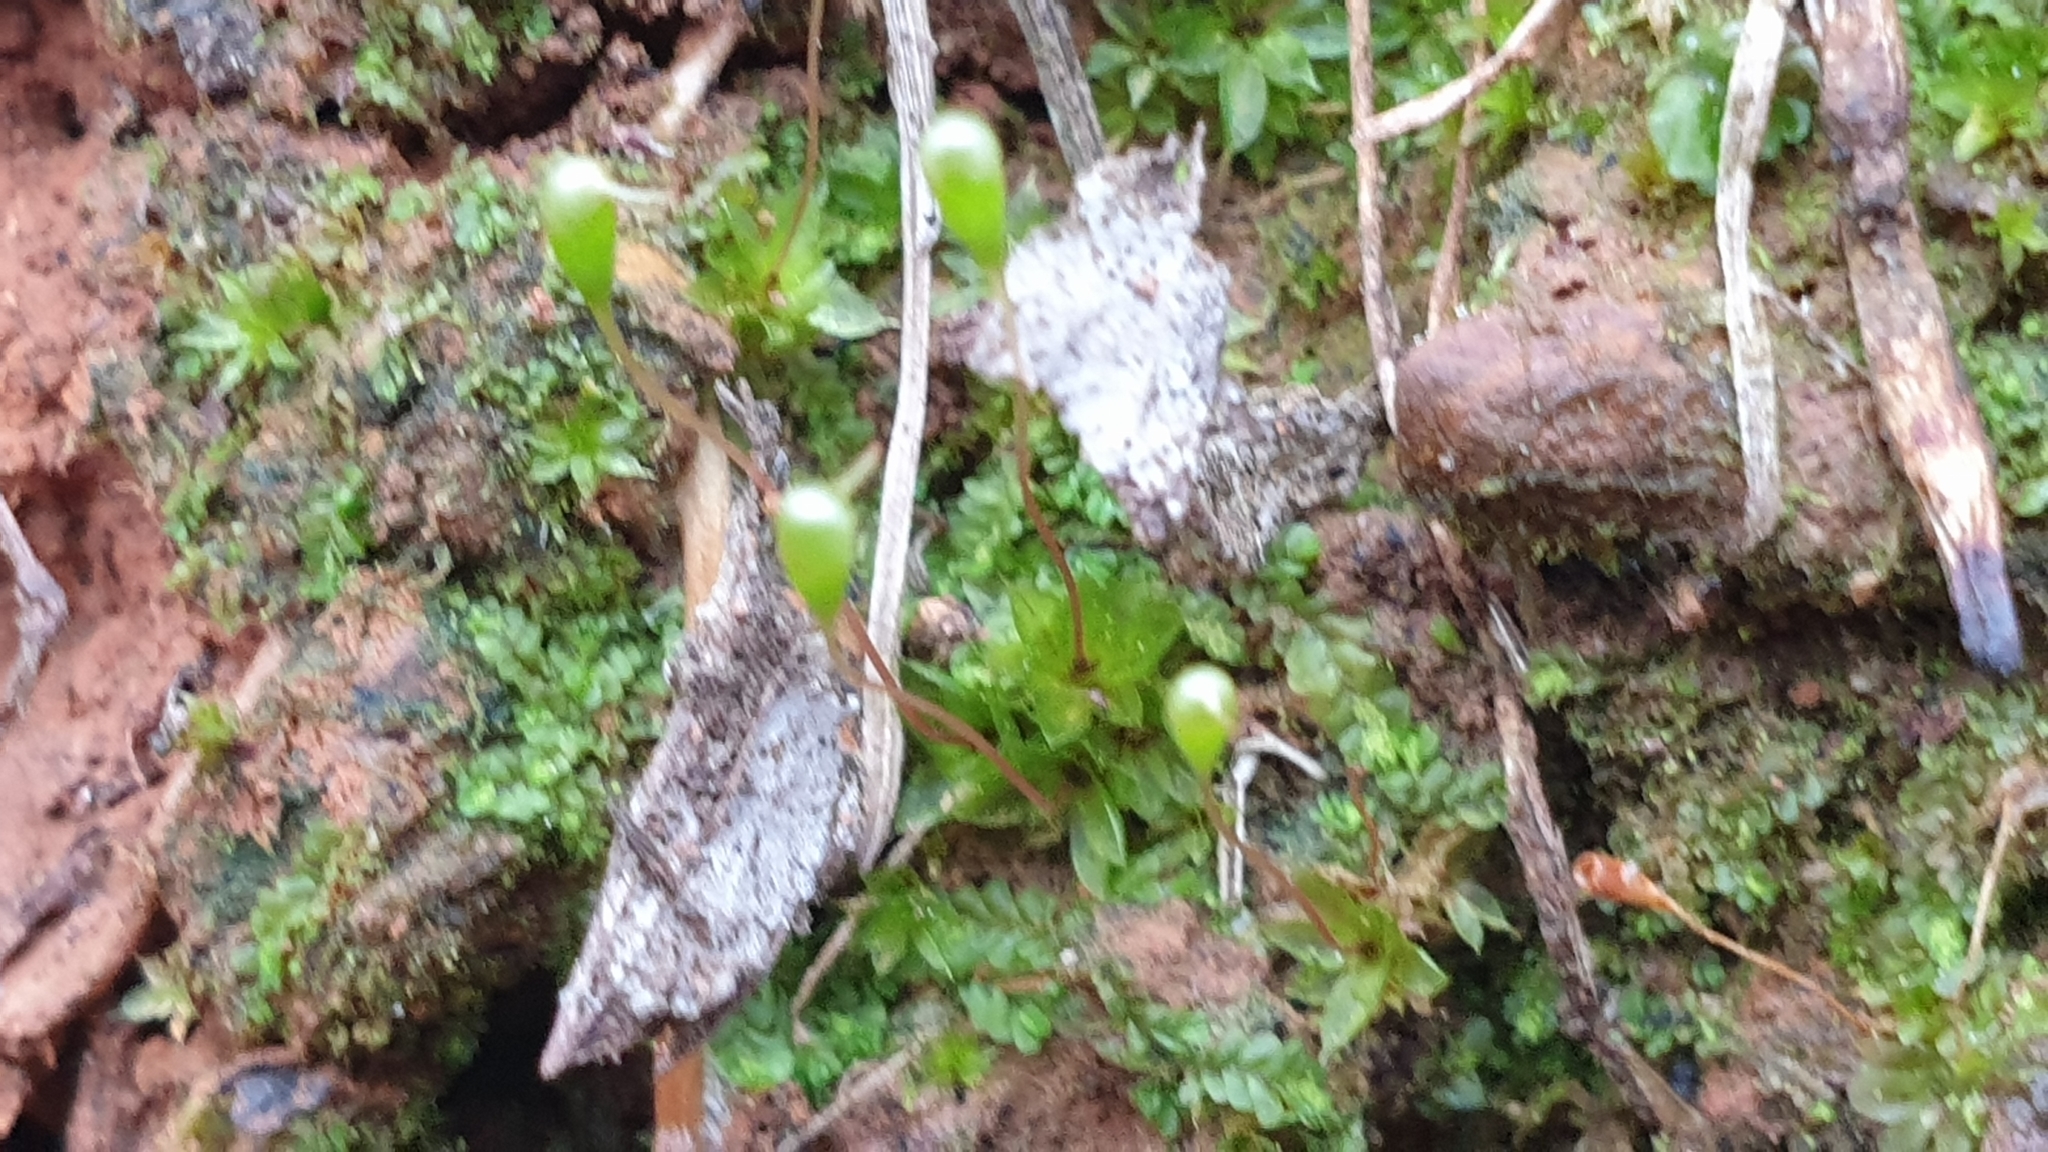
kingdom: Plantae
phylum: Bryophyta
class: Bryopsida
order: Funariales
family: Funariaceae
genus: Entosthodon
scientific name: Entosthodon subnudus
